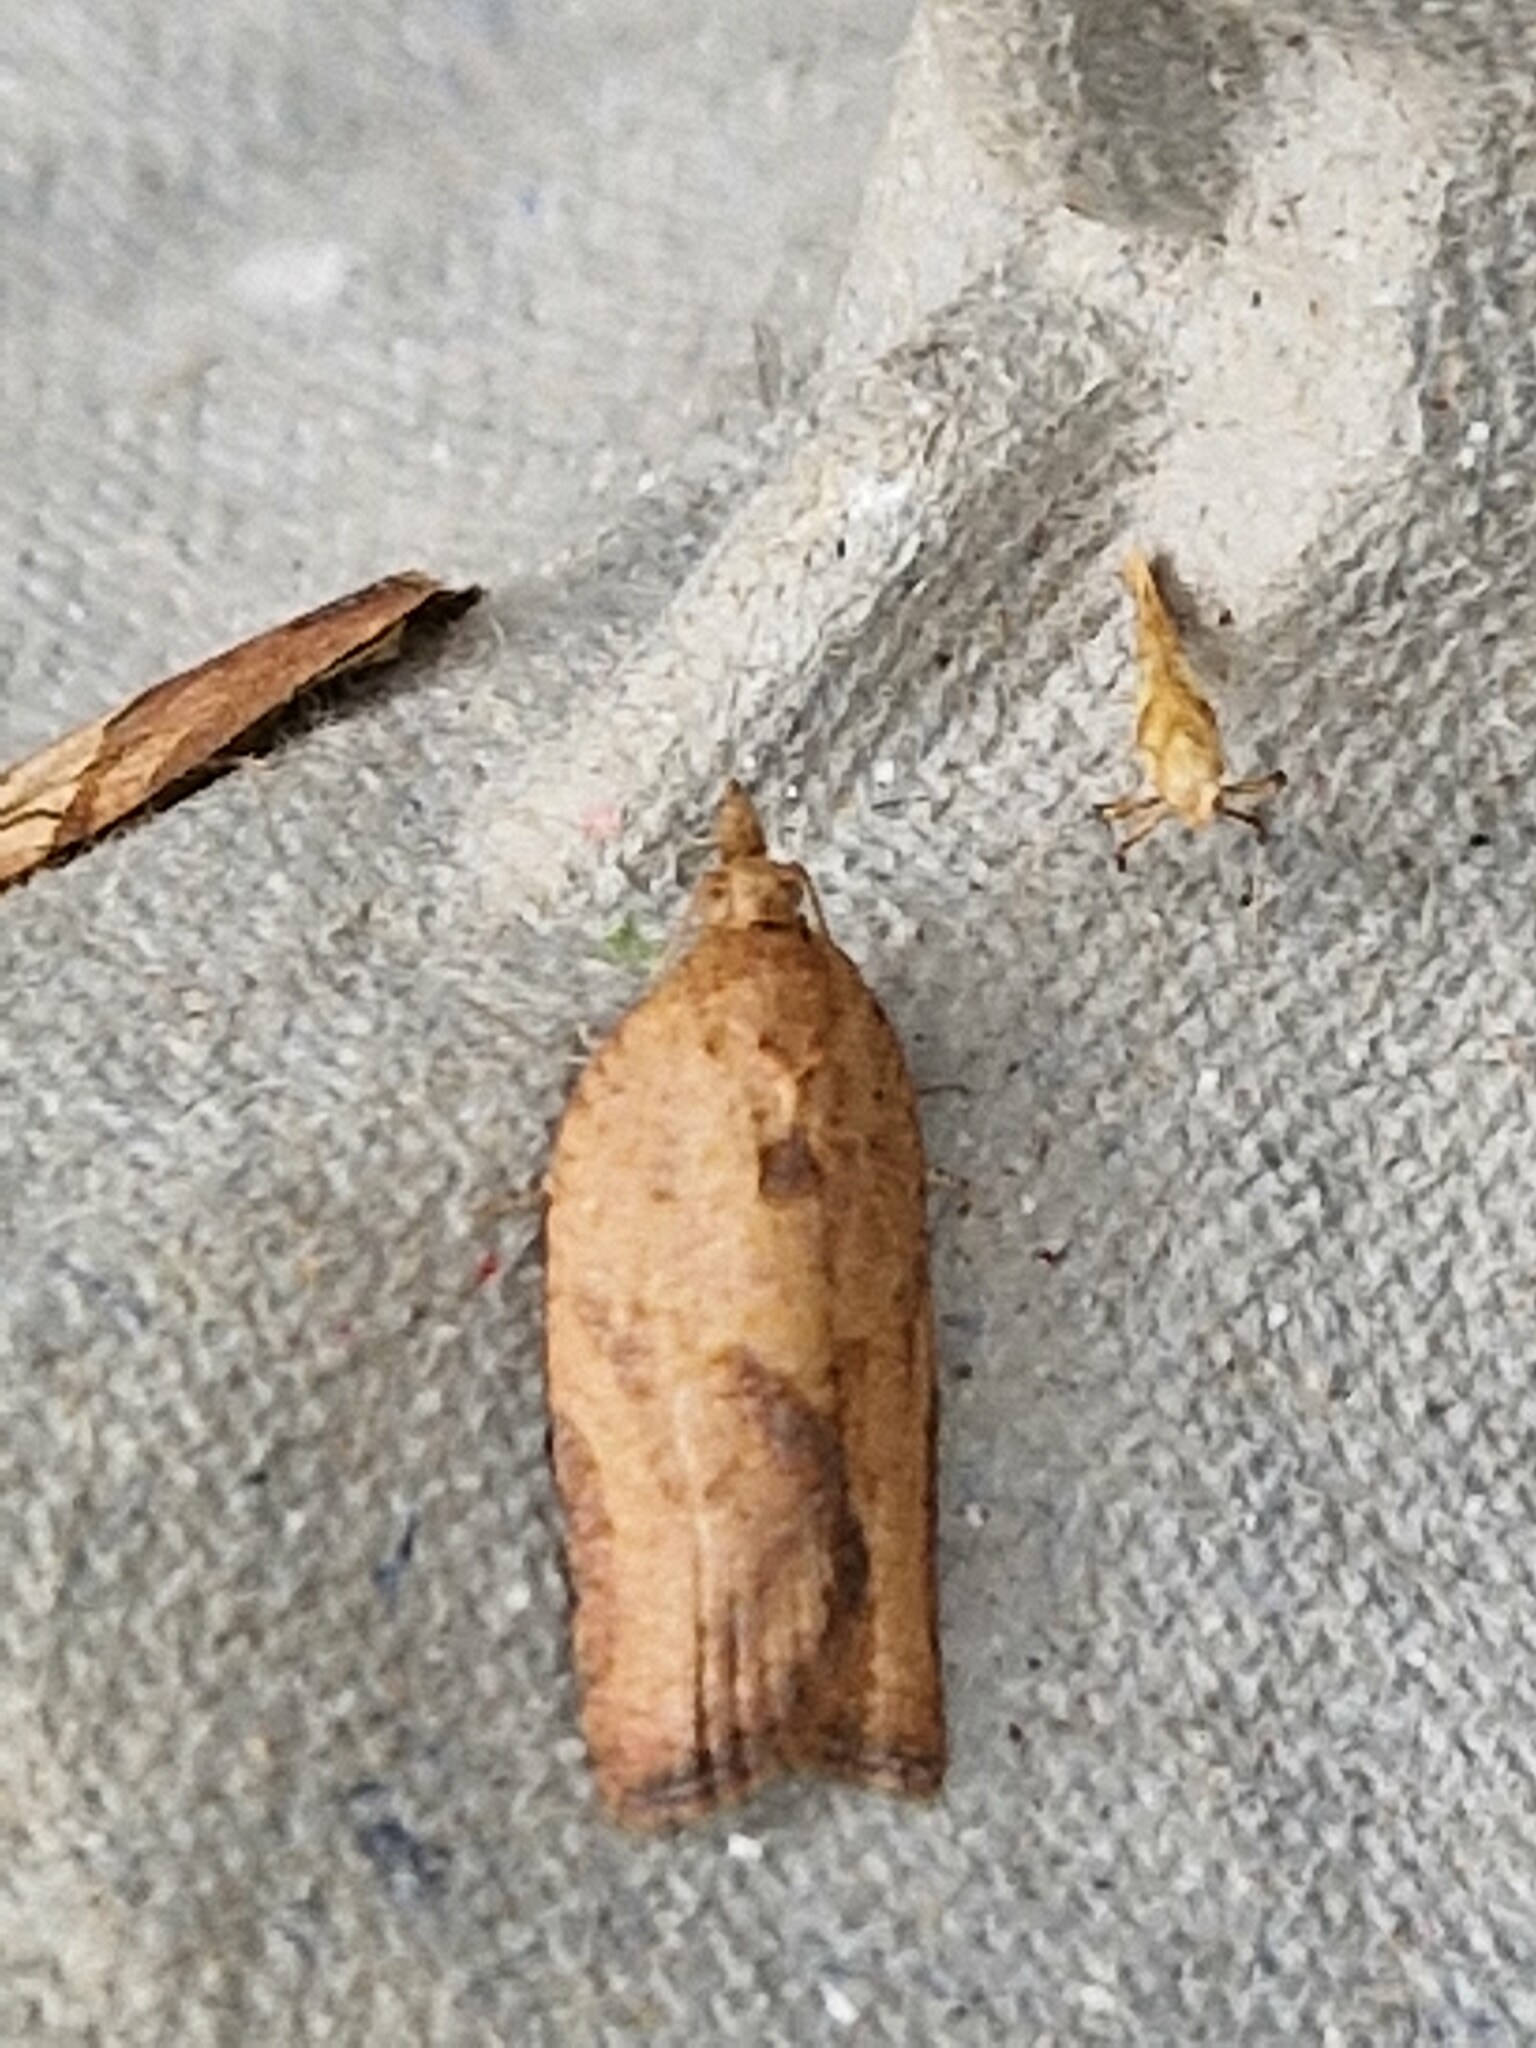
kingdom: Animalia
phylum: Arthropoda
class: Insecta
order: Lepidoptera
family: Tortricidae
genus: Epiphyas
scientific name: Epiphyas postvittana
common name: Light brown apple moth
